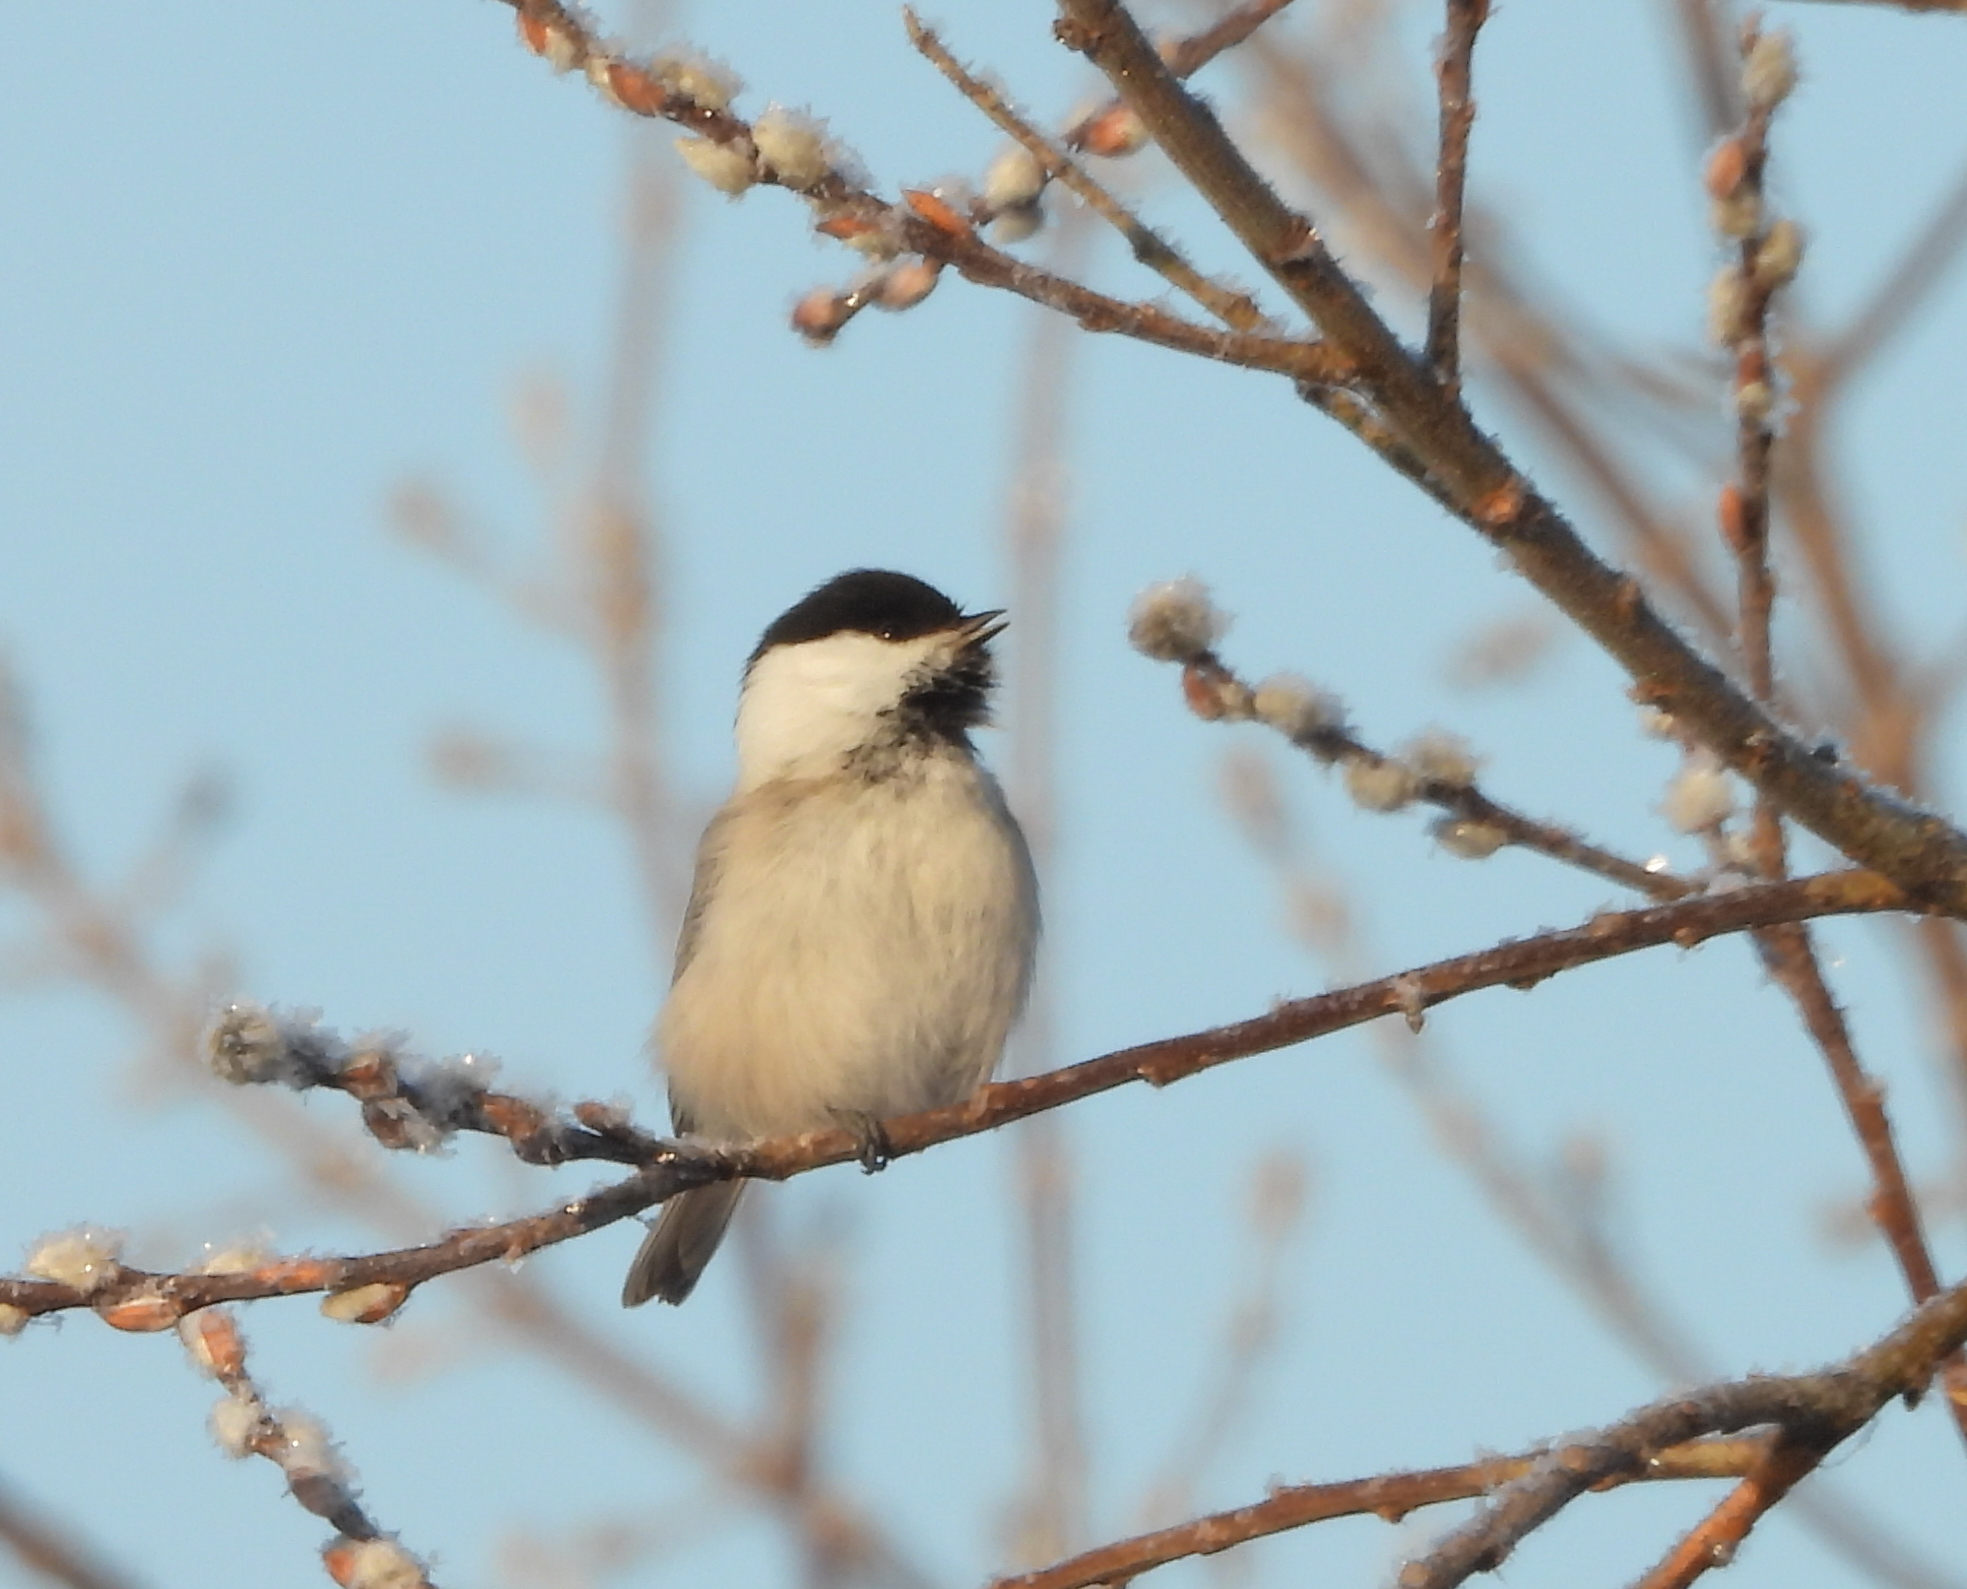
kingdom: Animalia
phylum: Chordata
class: Aves
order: Passeriformes
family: Paridae
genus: Poecile
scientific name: Poecile montanus
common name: Willow tit
